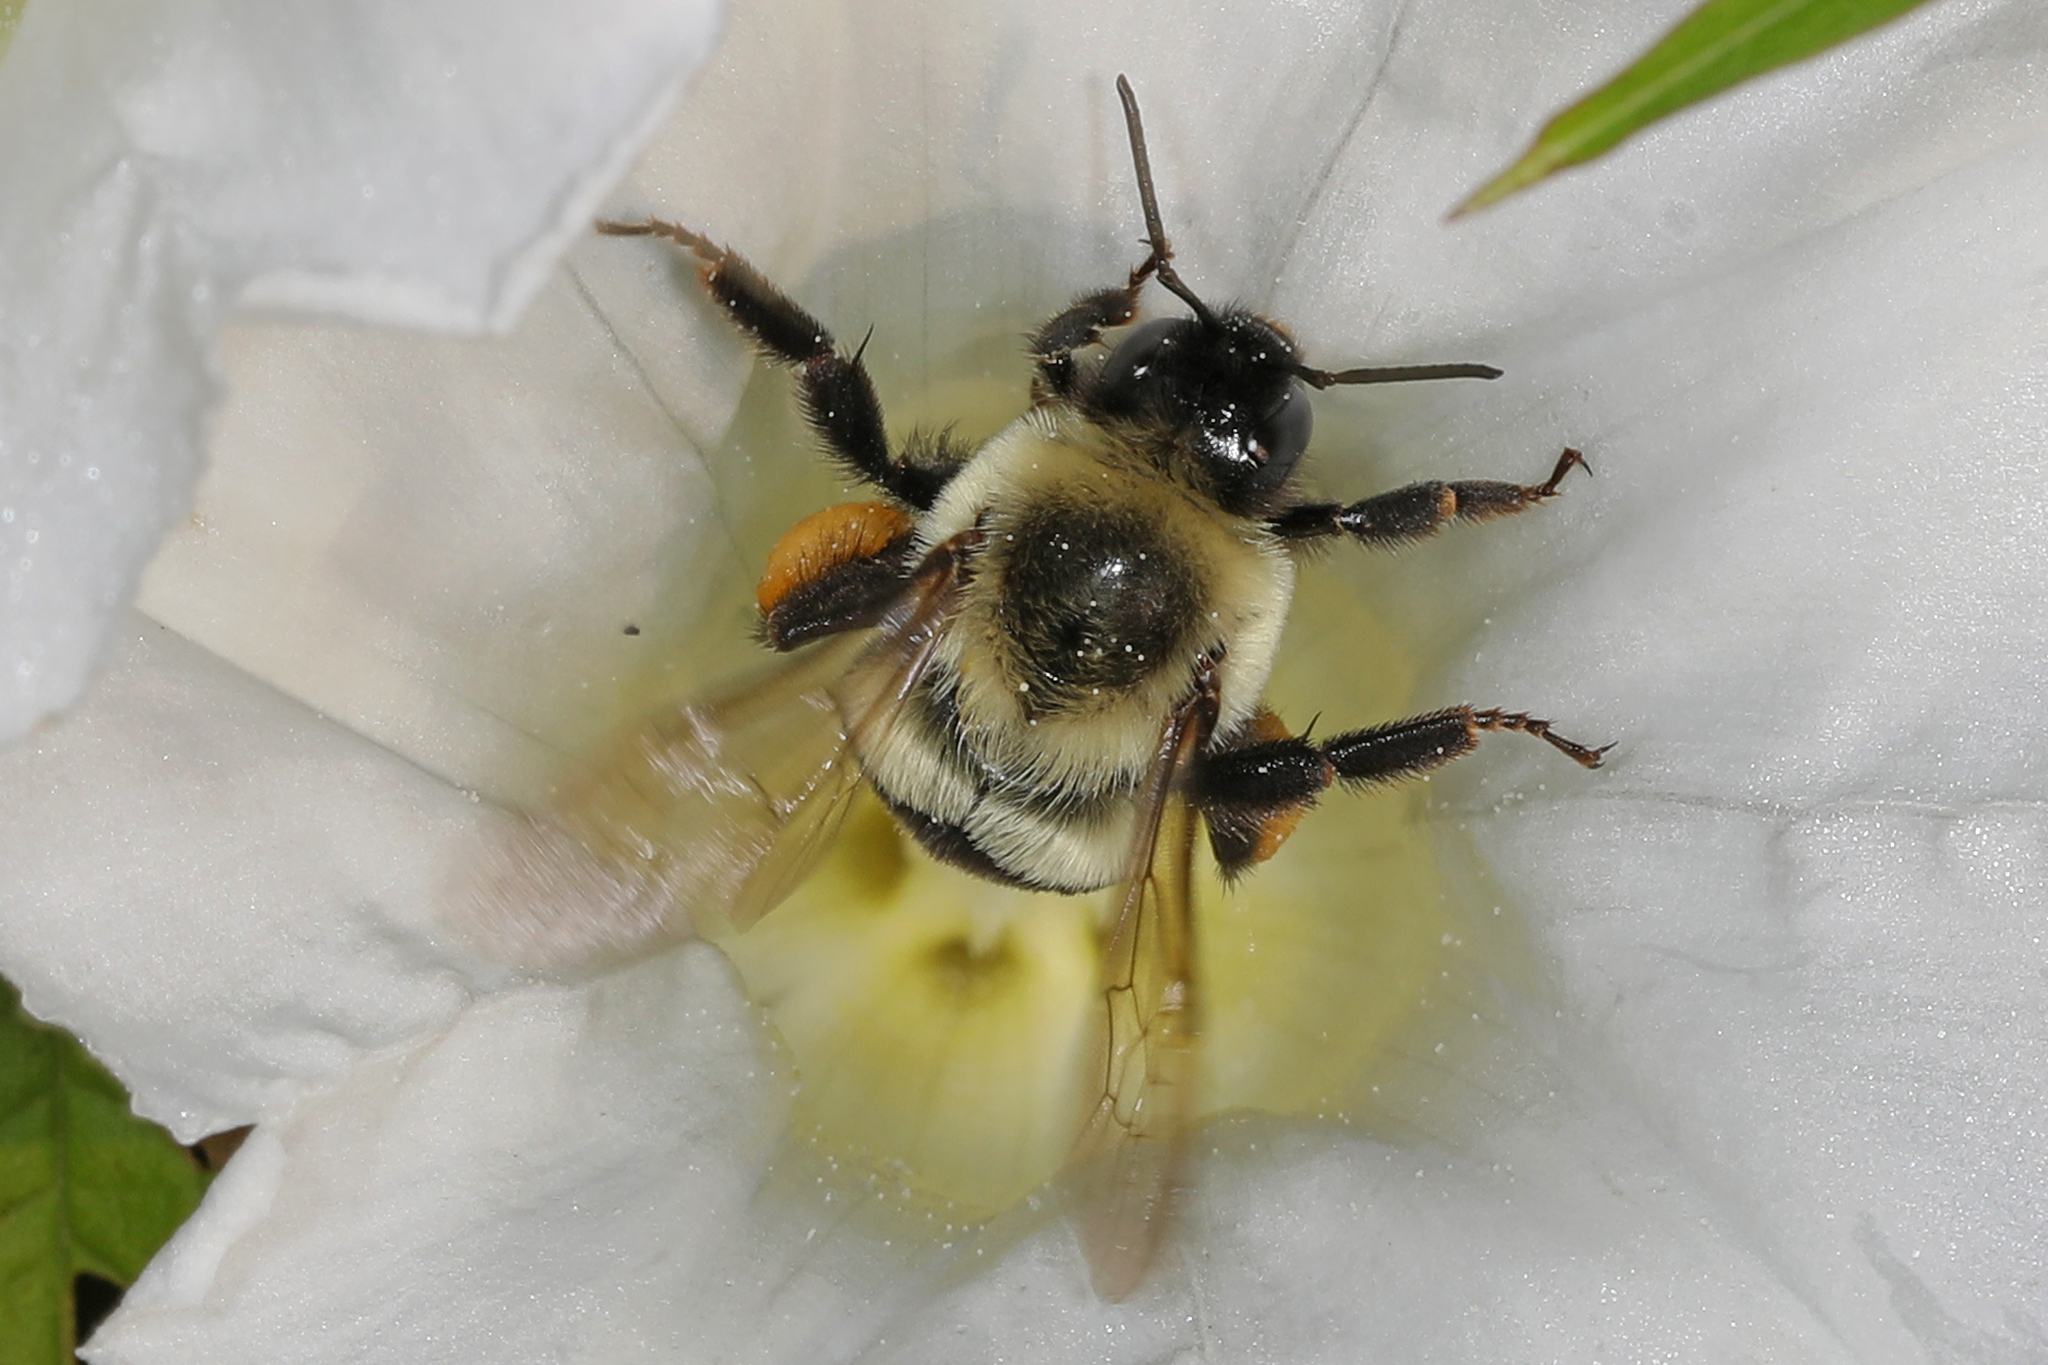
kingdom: Animalia
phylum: Arthropoda
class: Insecta
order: Hymenoptera
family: Apidae
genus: Bombus
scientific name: Bombus impatiens
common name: Common eastern bumble bee
